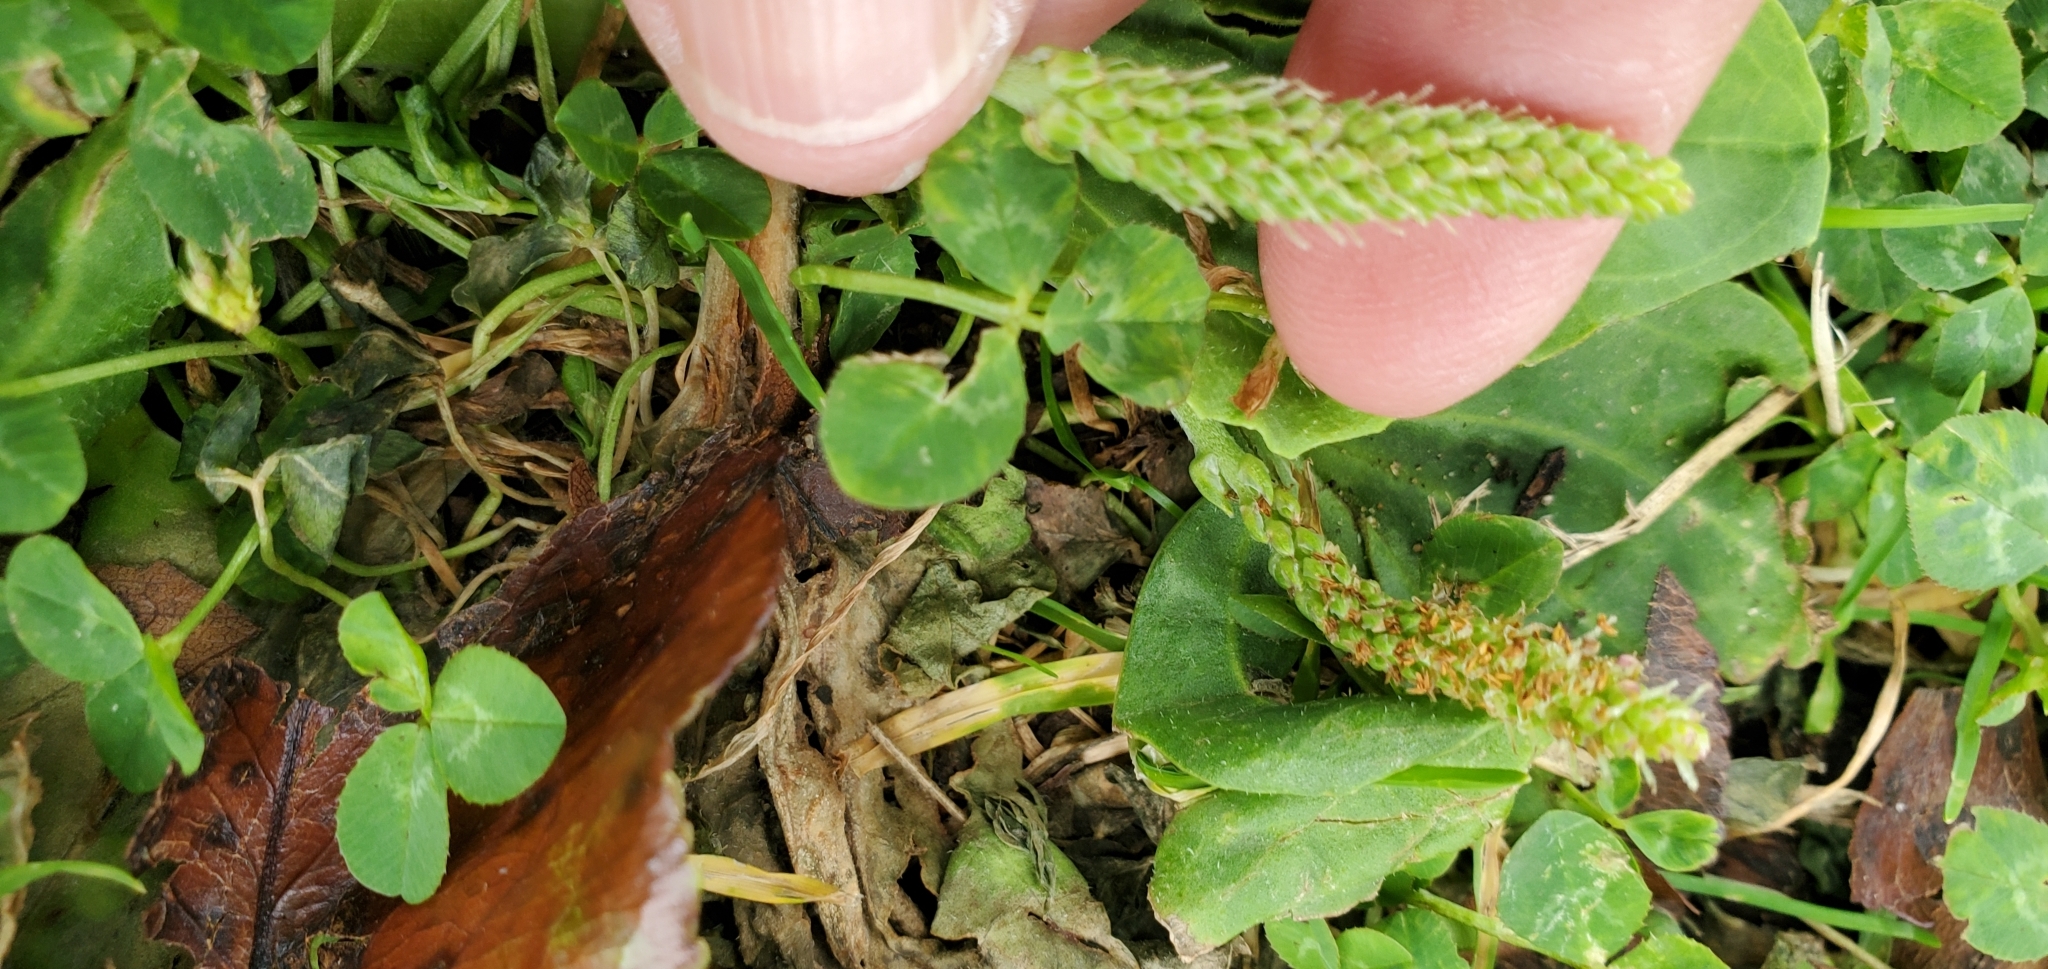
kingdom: Plantae
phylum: Tracheophyta
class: Magnoliopsida
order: Lamiales
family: Plantaginaceae
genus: Plantago
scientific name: Plantago major
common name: Common plantain
